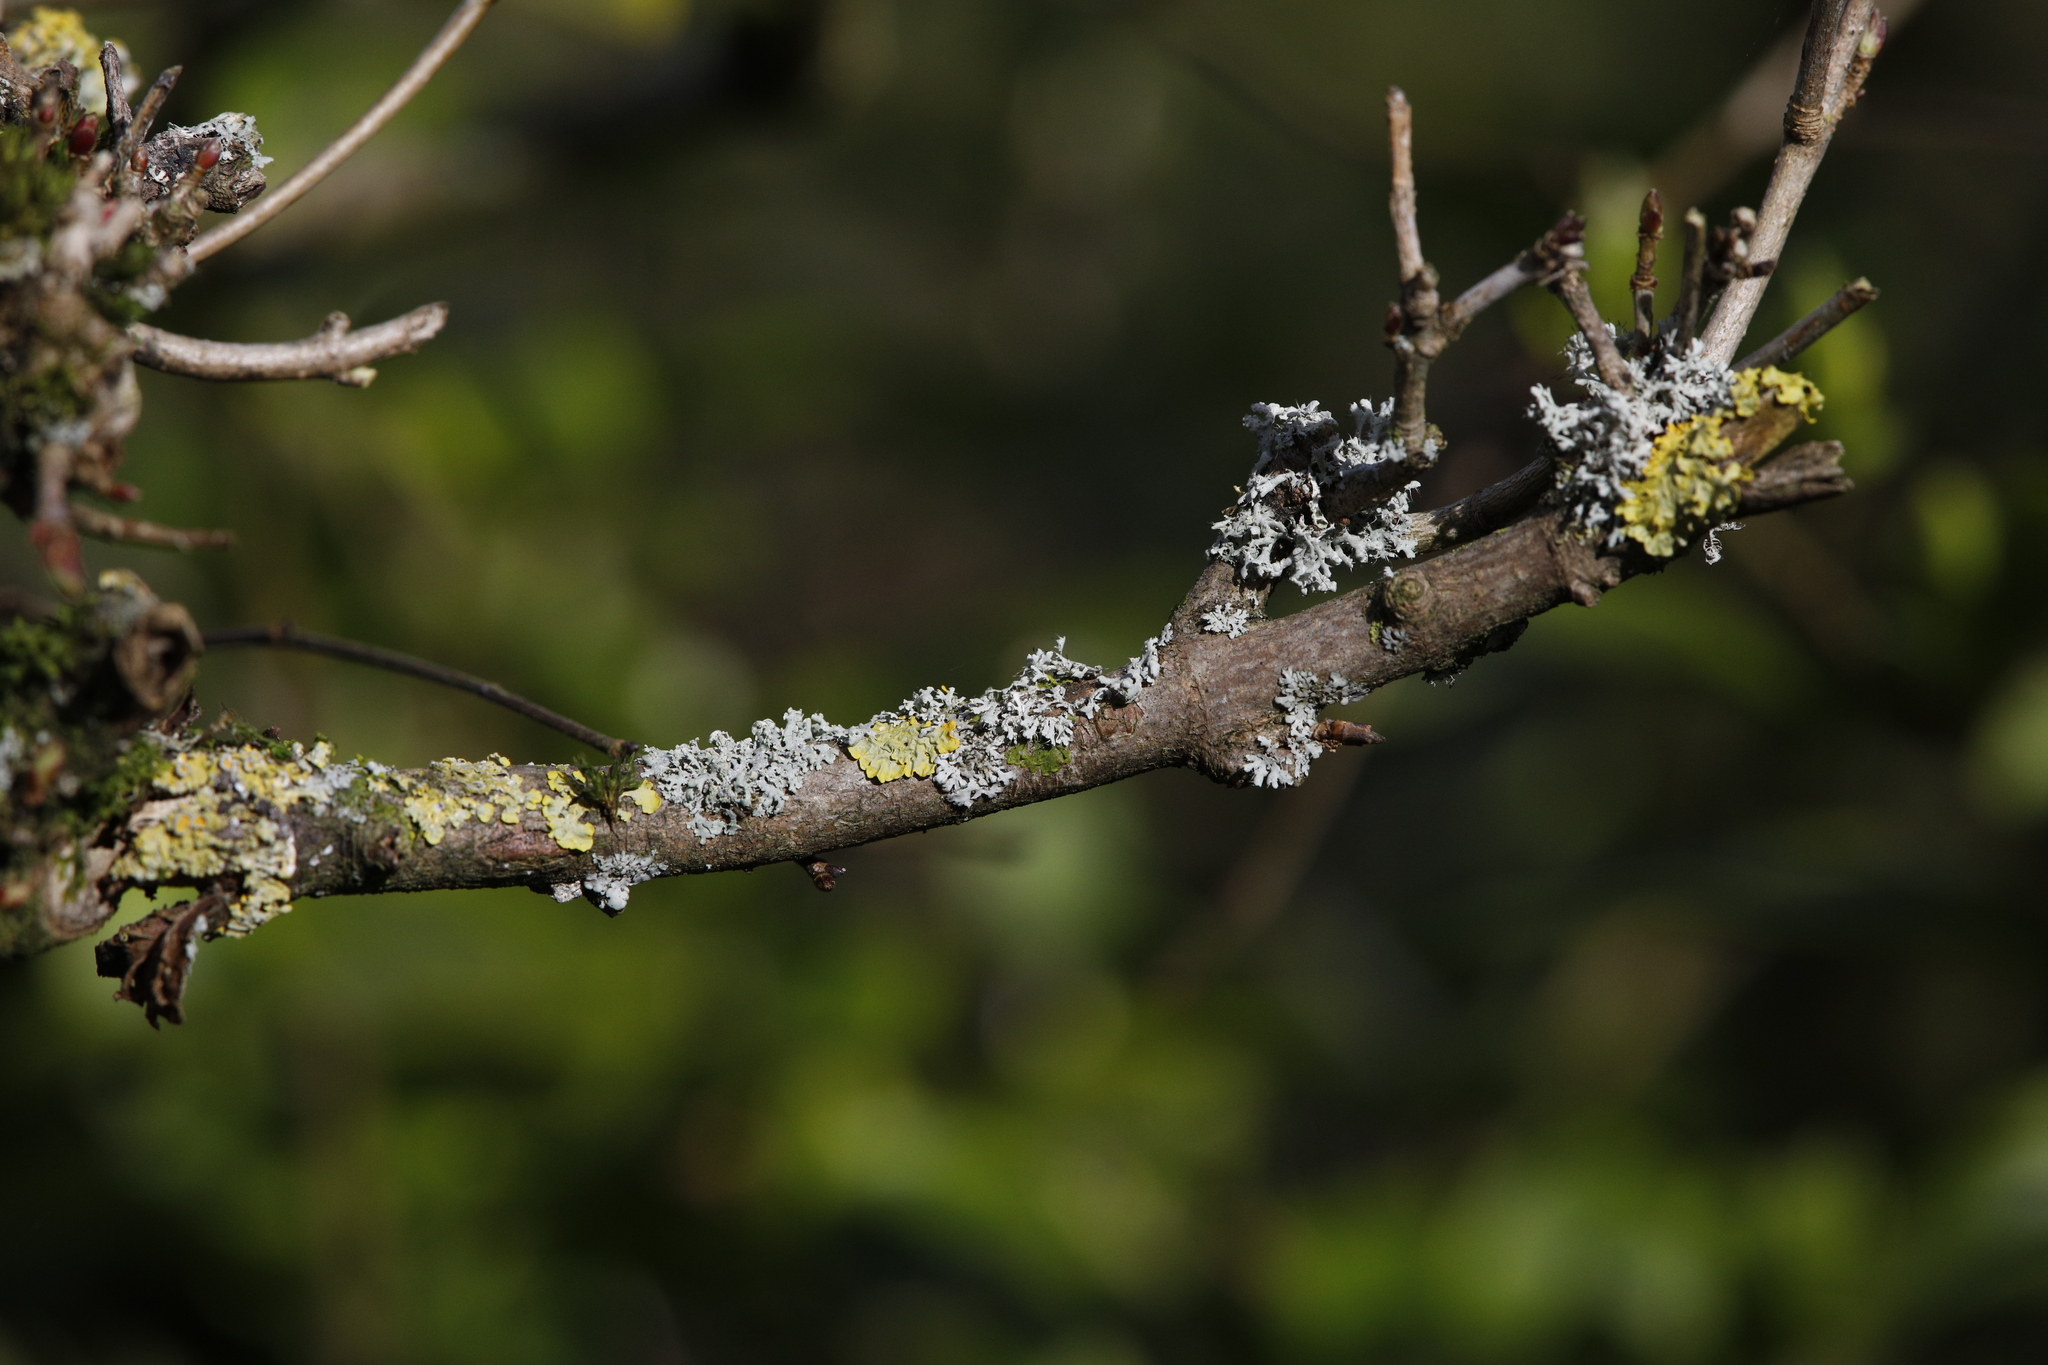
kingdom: Fungi
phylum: Ascomycota
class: Lecanoromycetes
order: Teloschistales
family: Teloschistaceae
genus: Xanthoria
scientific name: Xanthoria parietina
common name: Common orange lichen
